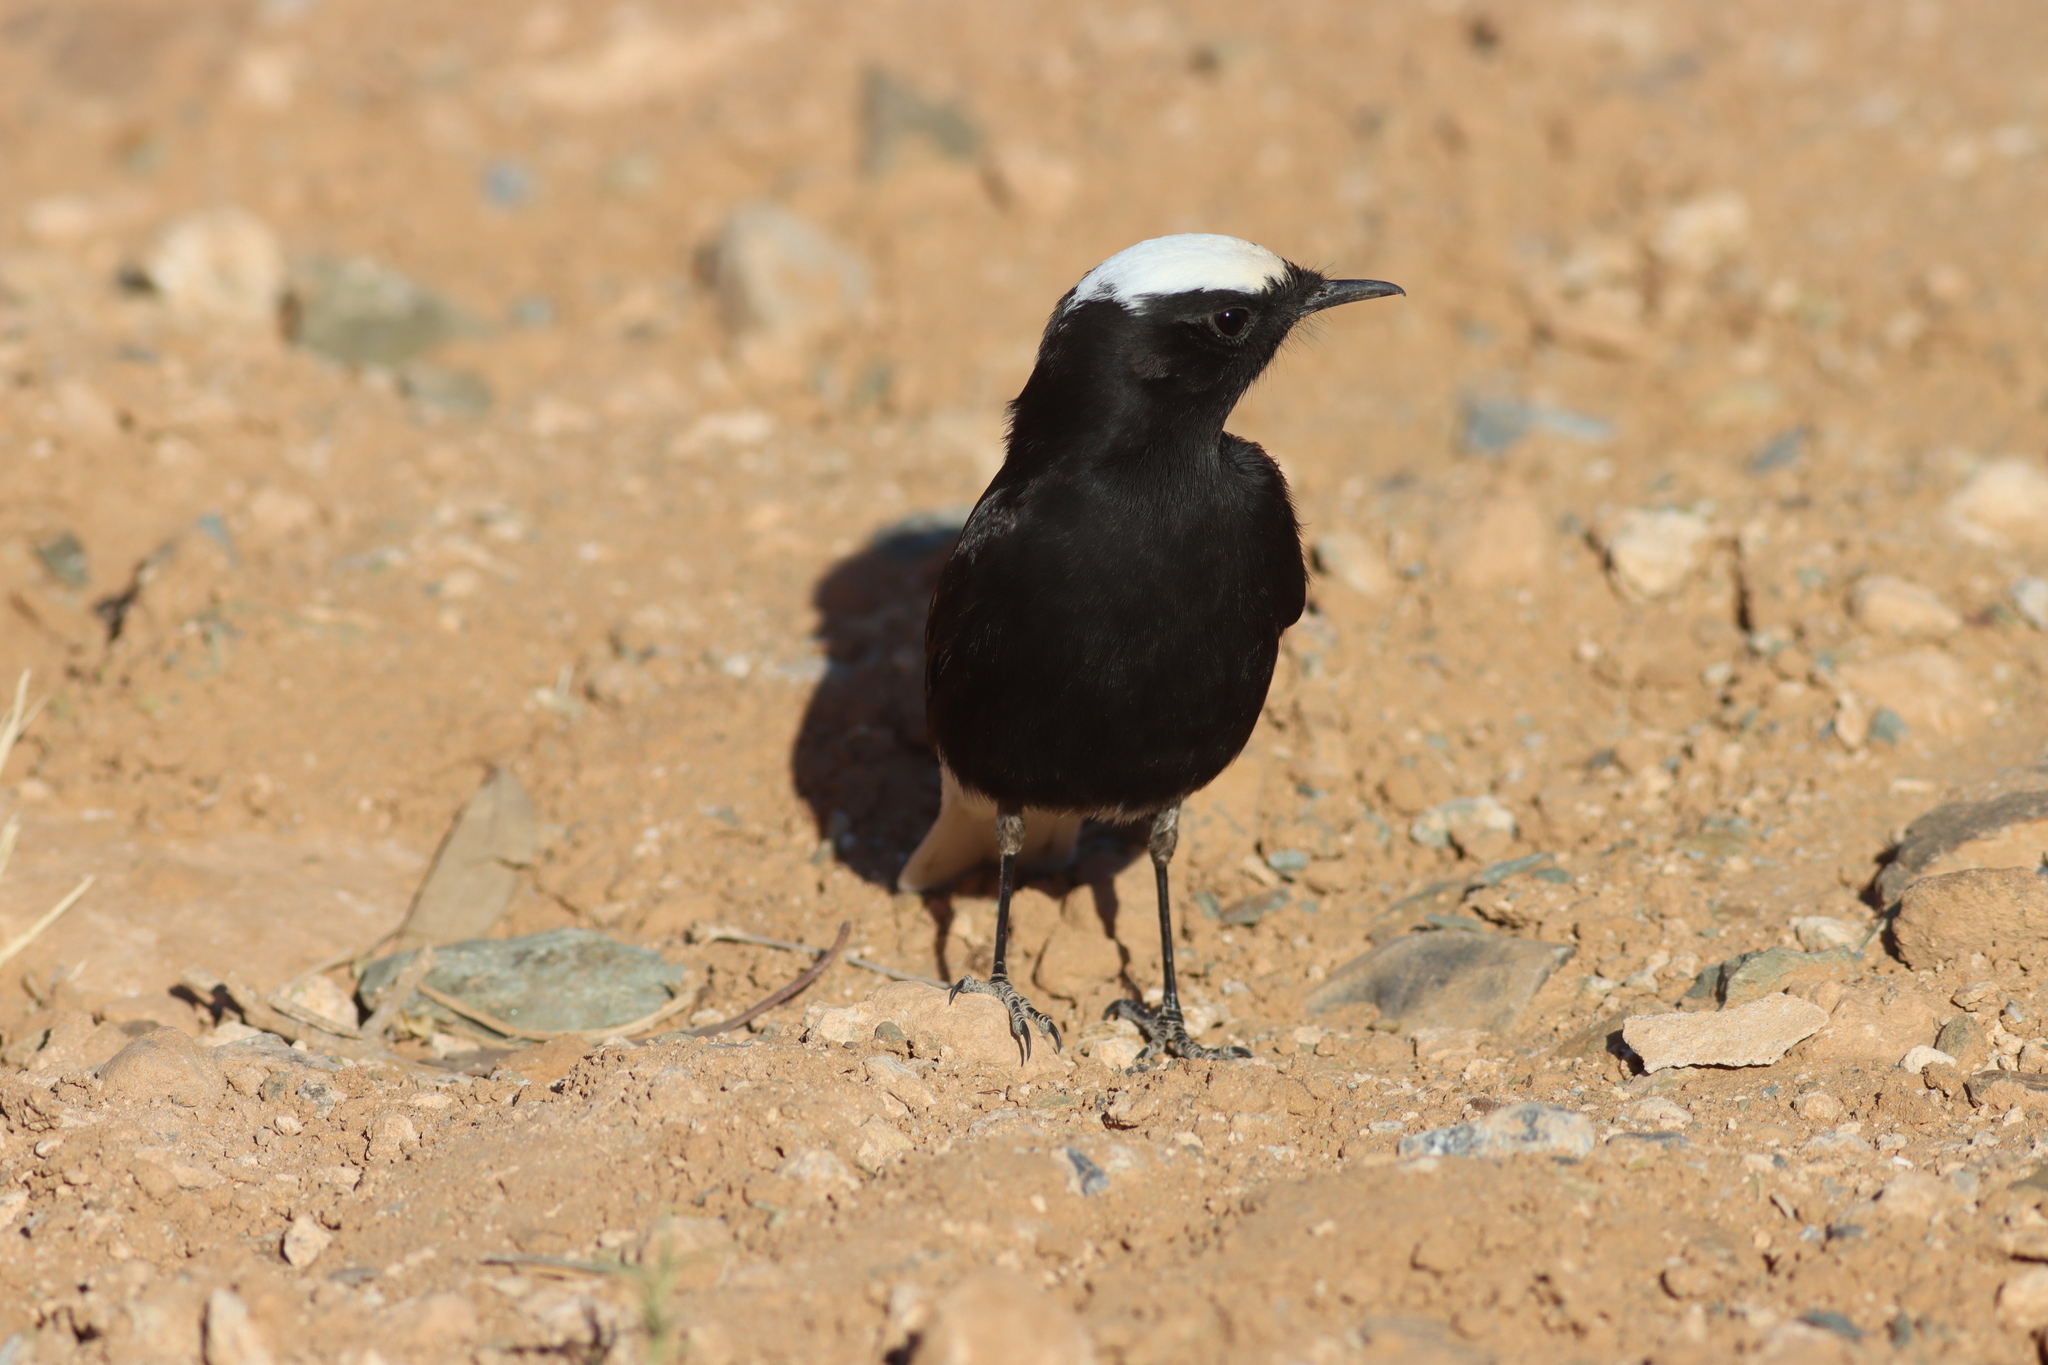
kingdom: Animalia
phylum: Chordata
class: Aves
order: Passeriformes
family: Muscicapidae
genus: Oenanthe
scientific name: Oenanthe leucopyga
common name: White-crowned wheatear
